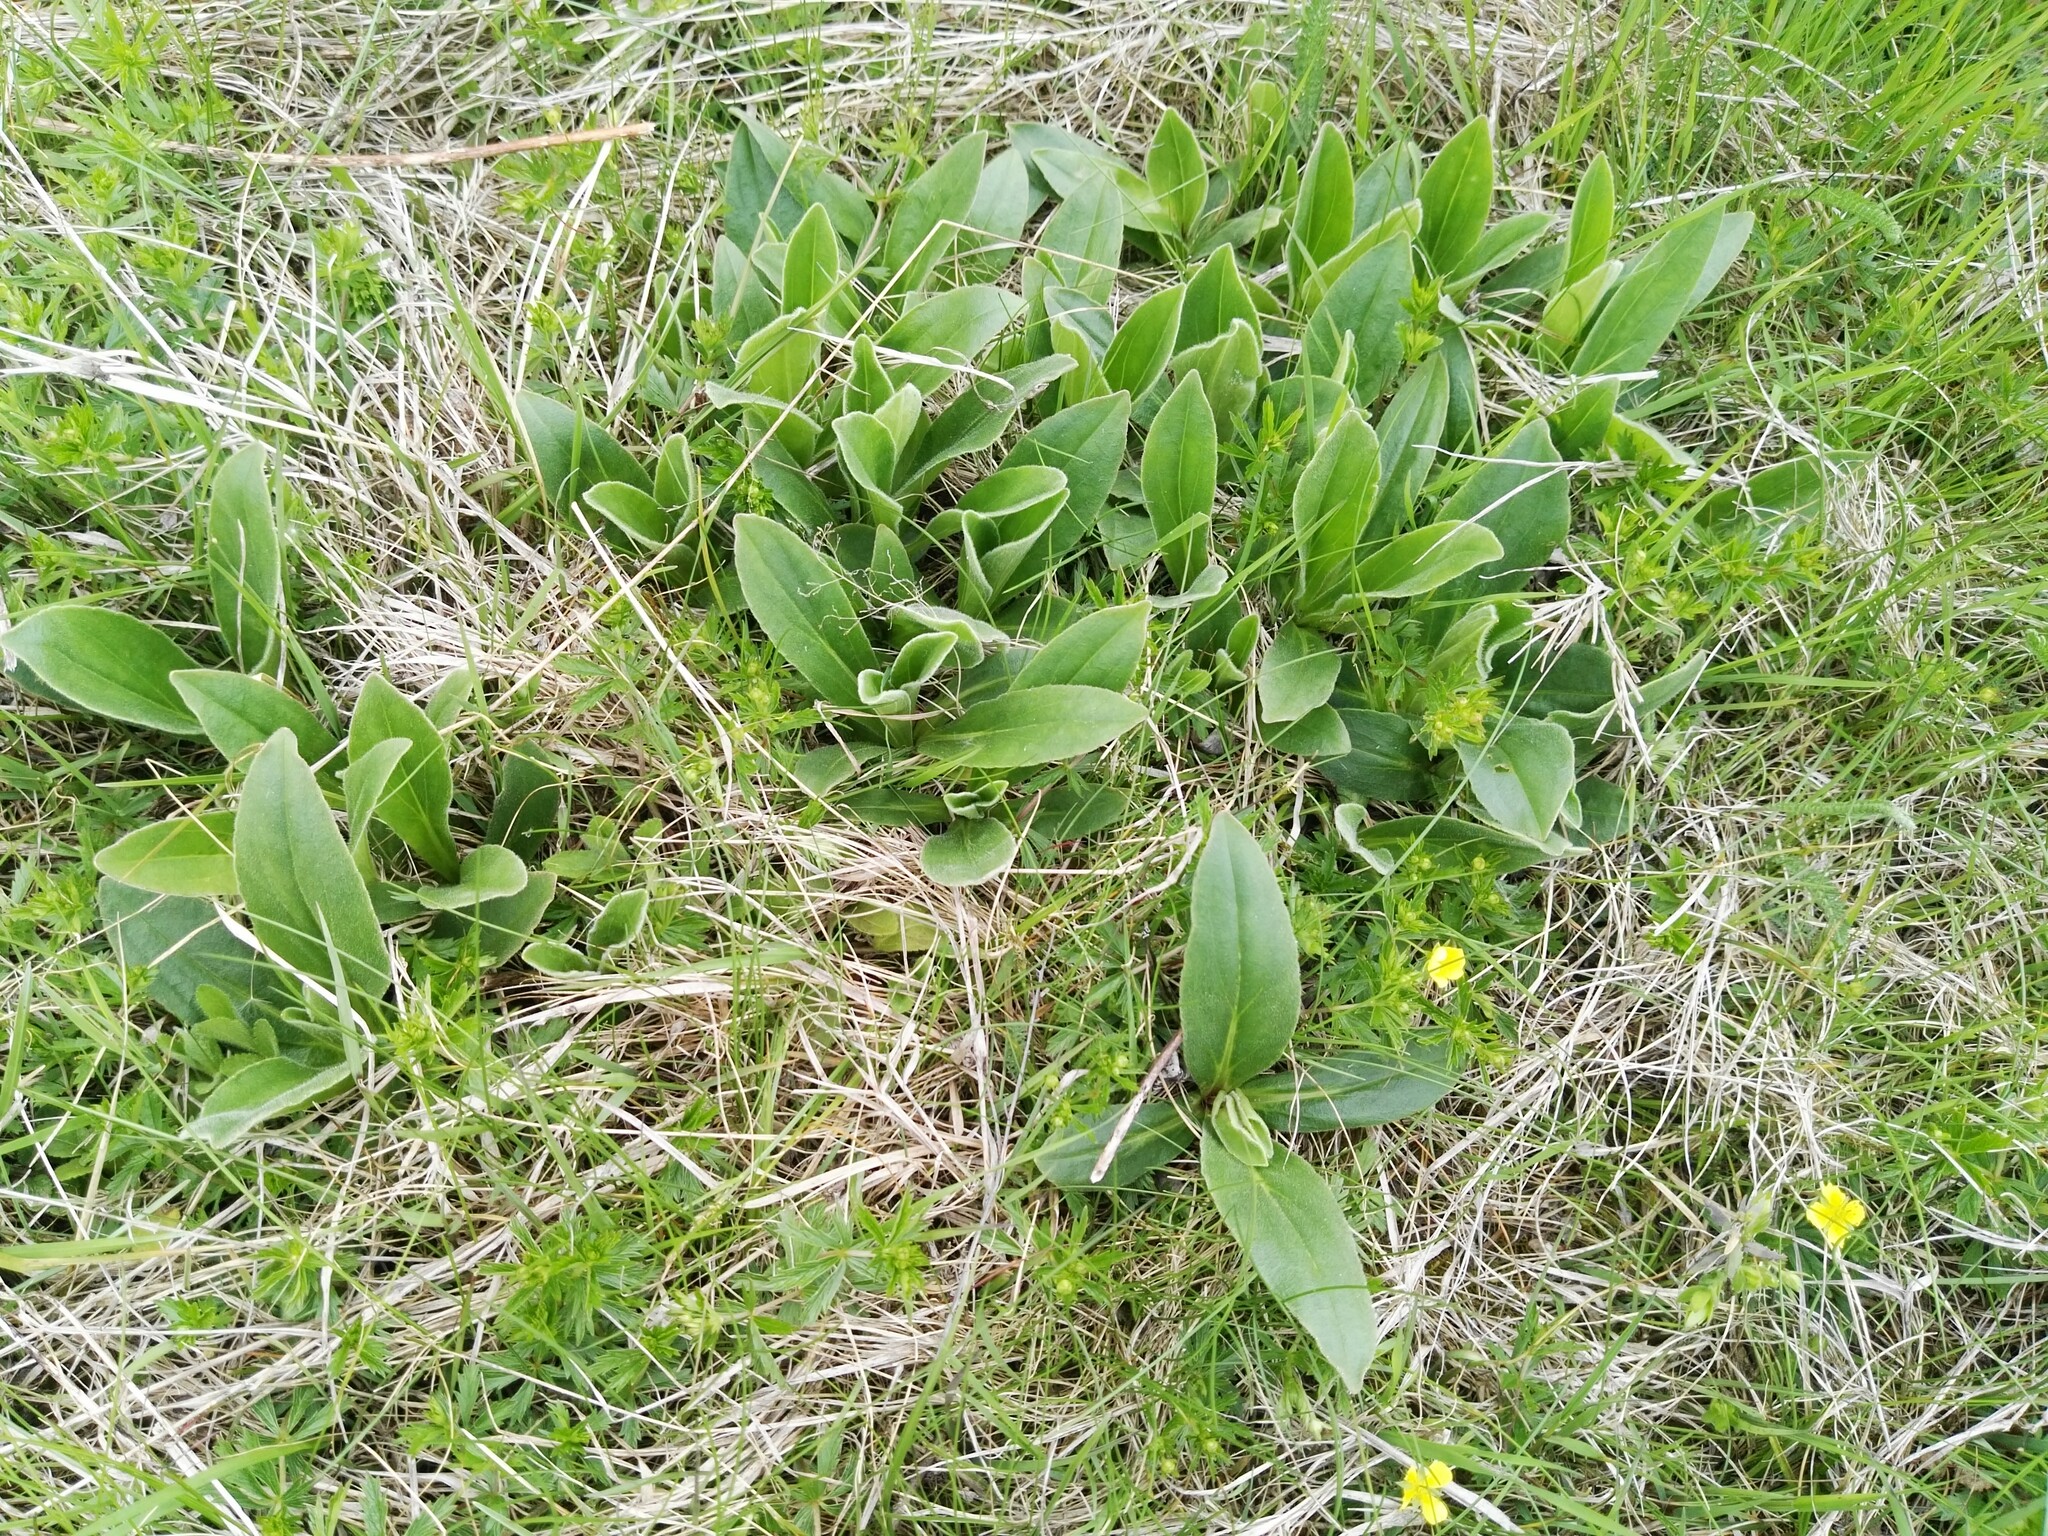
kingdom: Plantae
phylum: Tracheophyta
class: Magnoliopsida
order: Asterales
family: Asteraceae
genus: Arnica
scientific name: Arnica montana
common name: Leopard's bane
